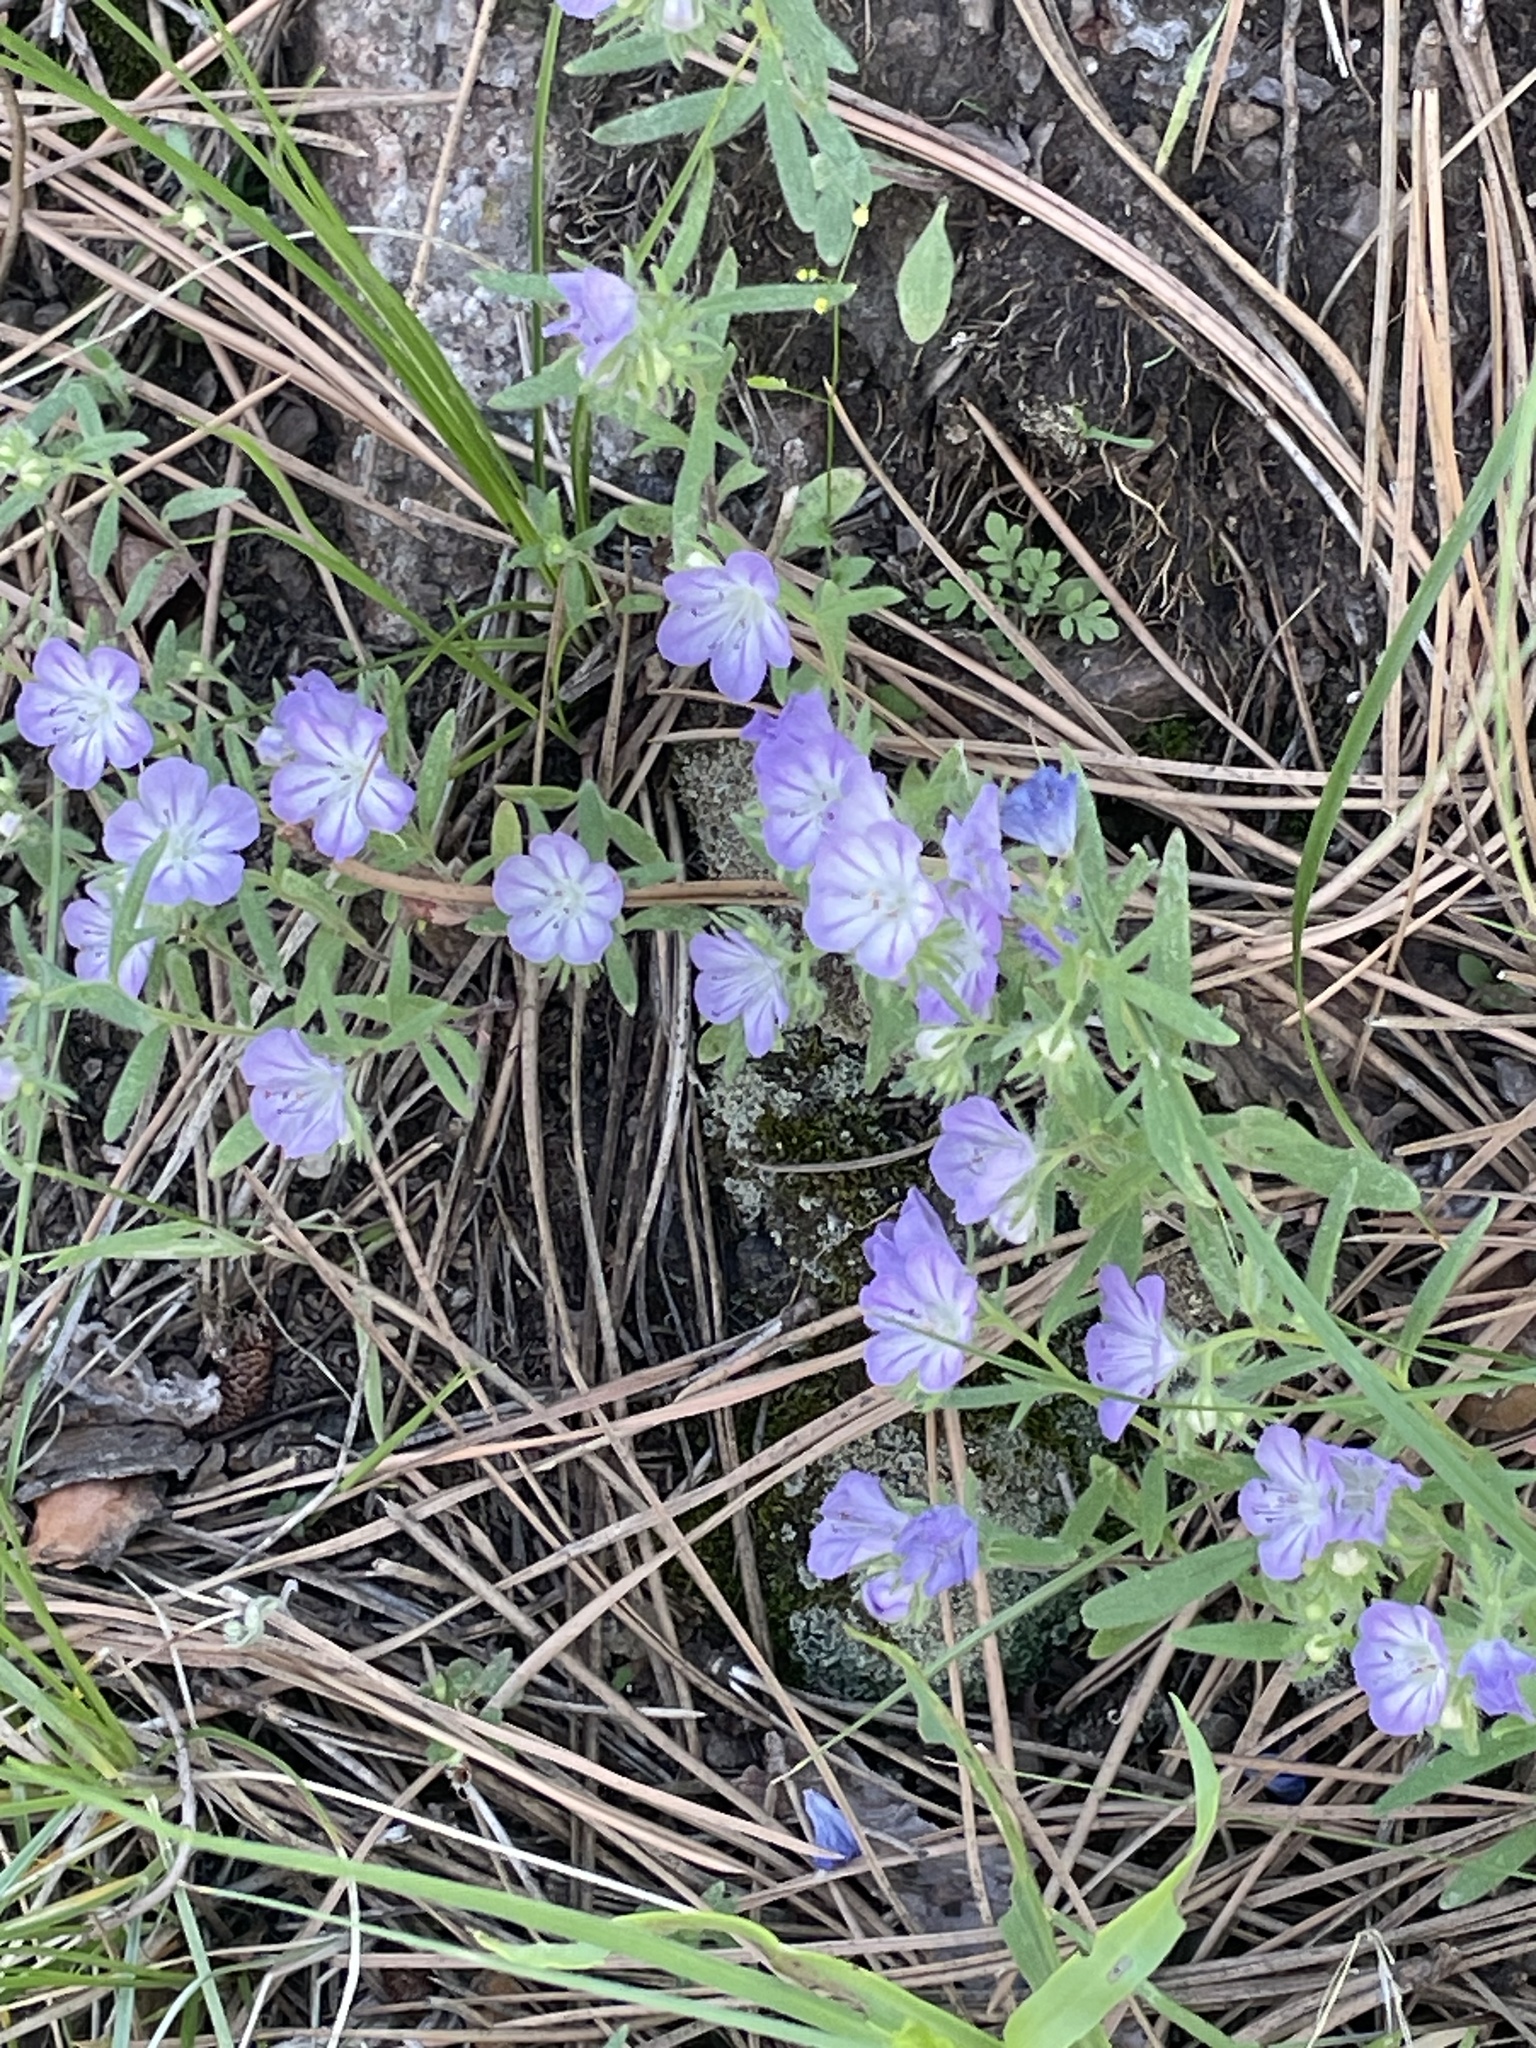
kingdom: Plantae
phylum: Tracheophyta
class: Magnoliopsida
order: Boraginales
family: Hydrophyllaceae
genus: Phacelia
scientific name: Phacelia linearis
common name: Linear-leaved phacelia
